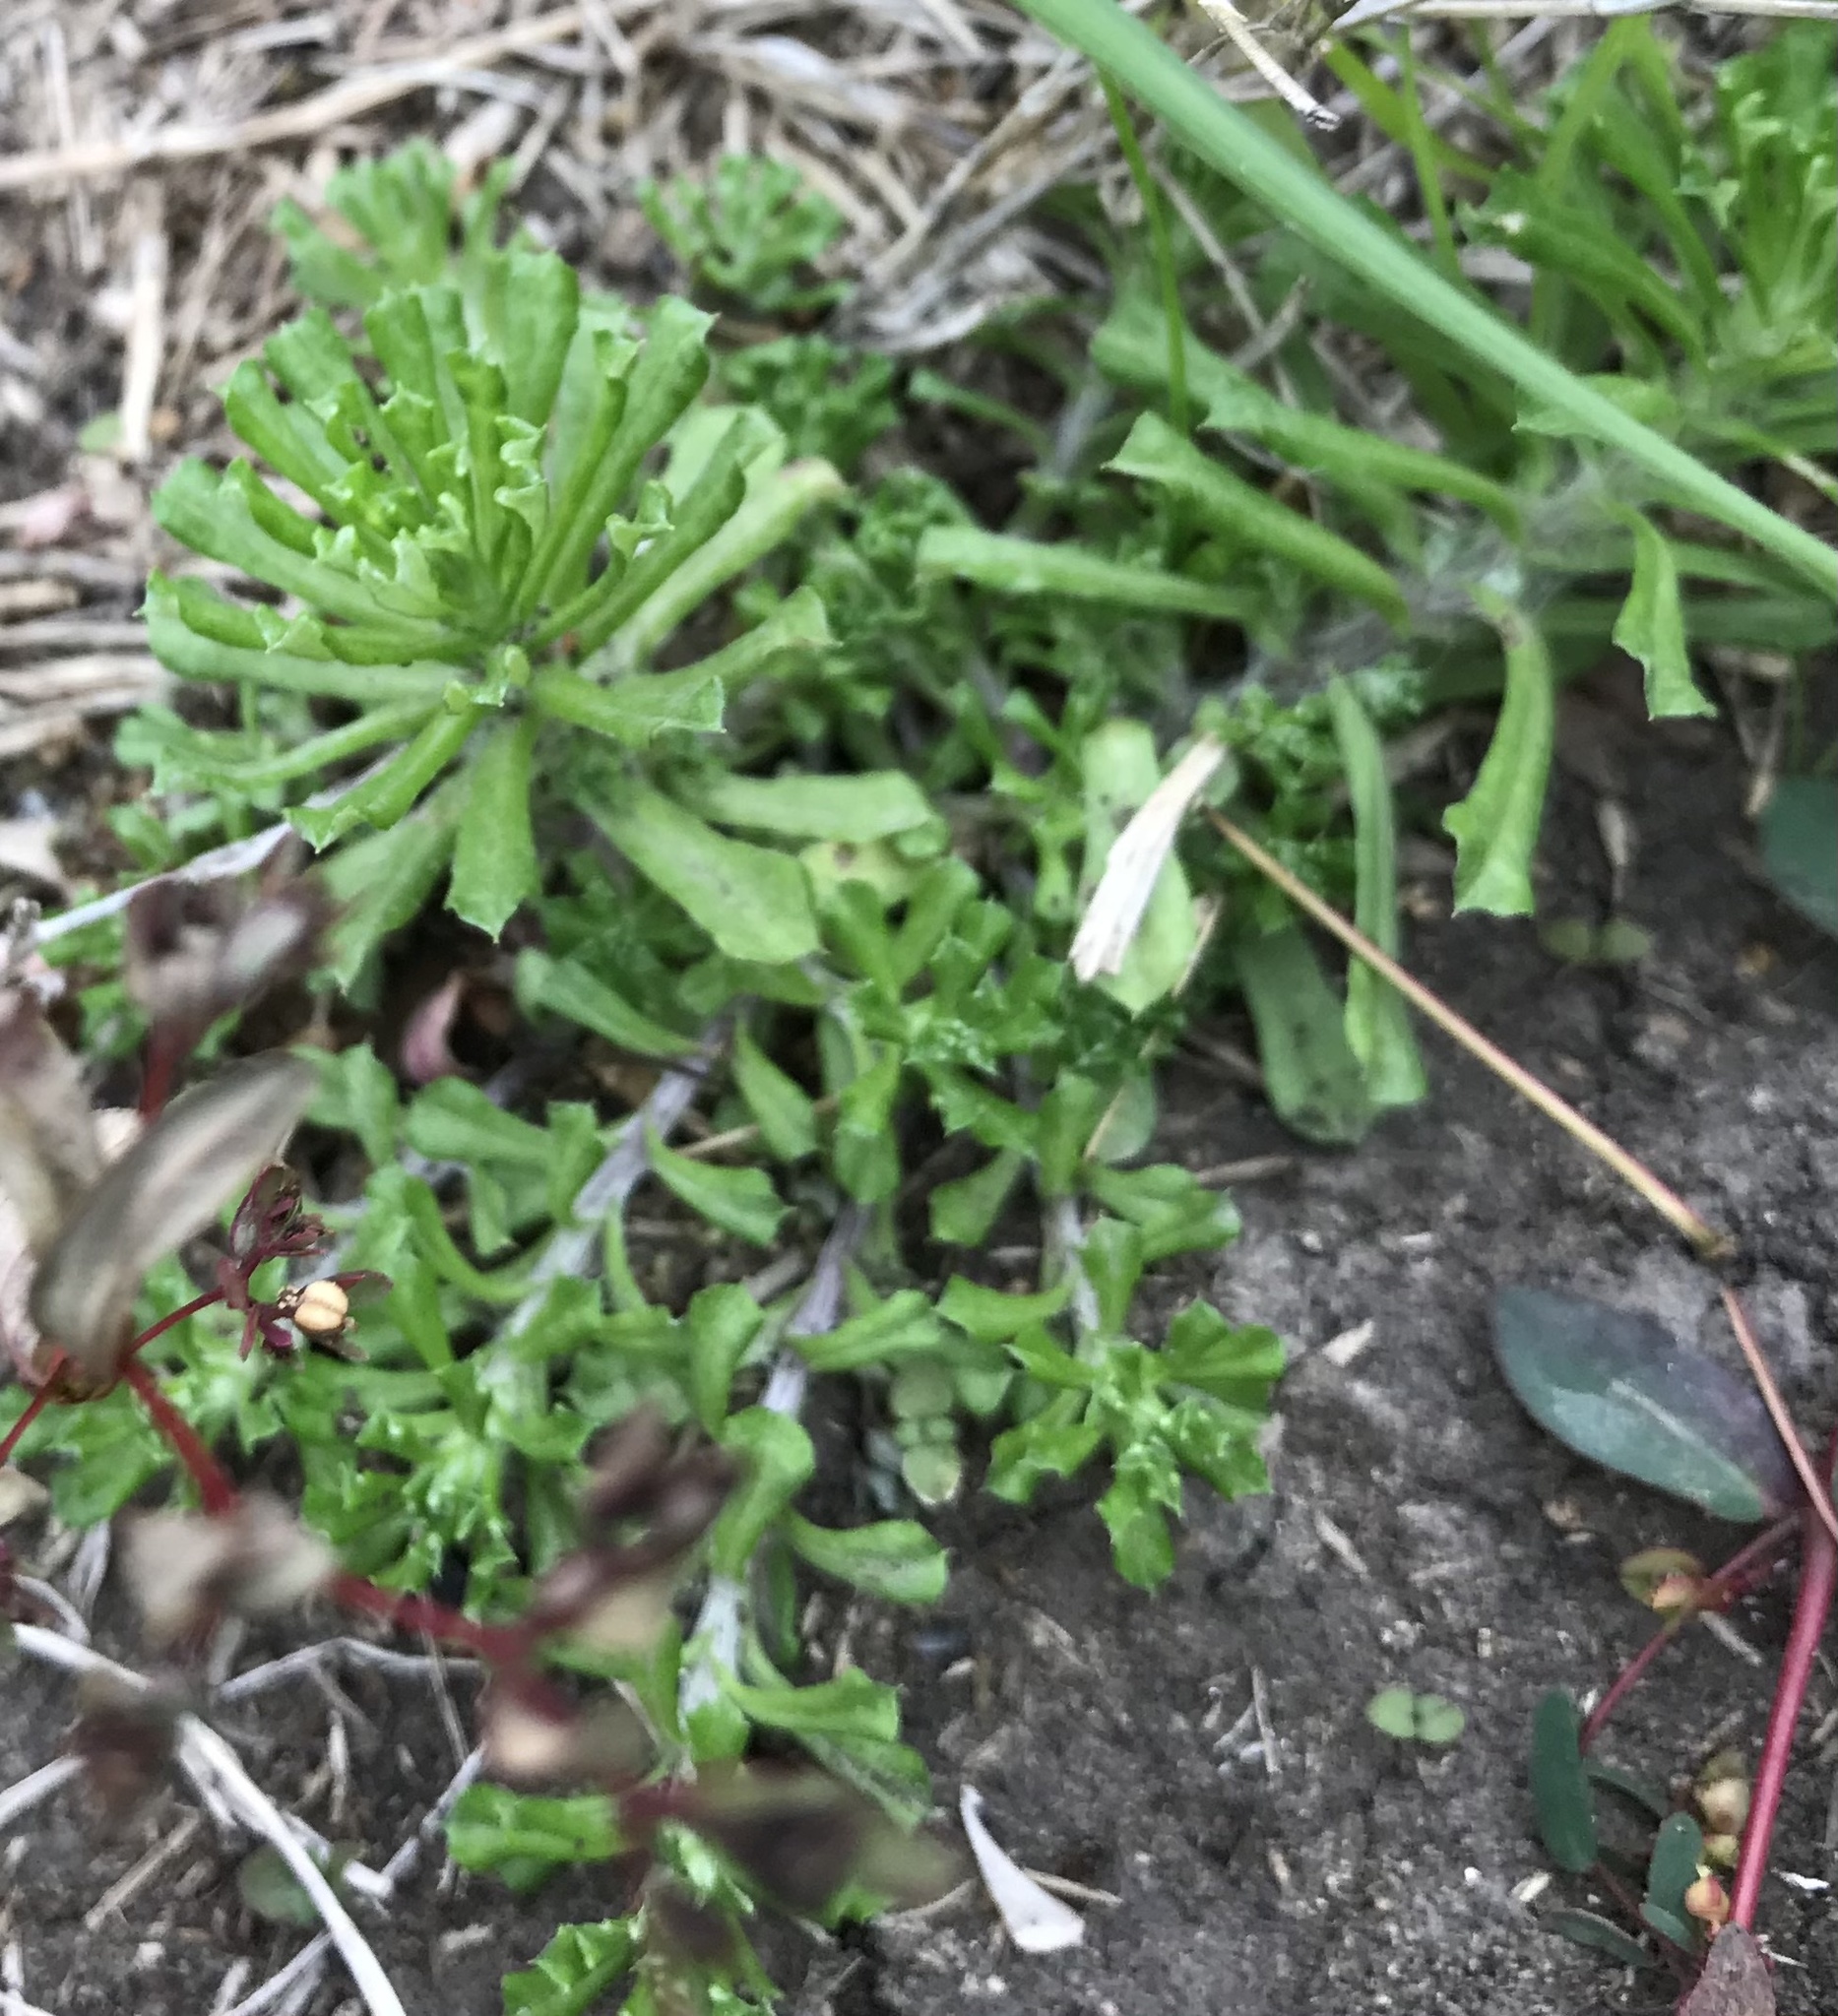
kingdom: Plantae
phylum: Tracheophyta
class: Magnoliopsida
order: Asterales
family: Asteraceae
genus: Facelis
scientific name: Facelis retusa
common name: Annual trampweed
